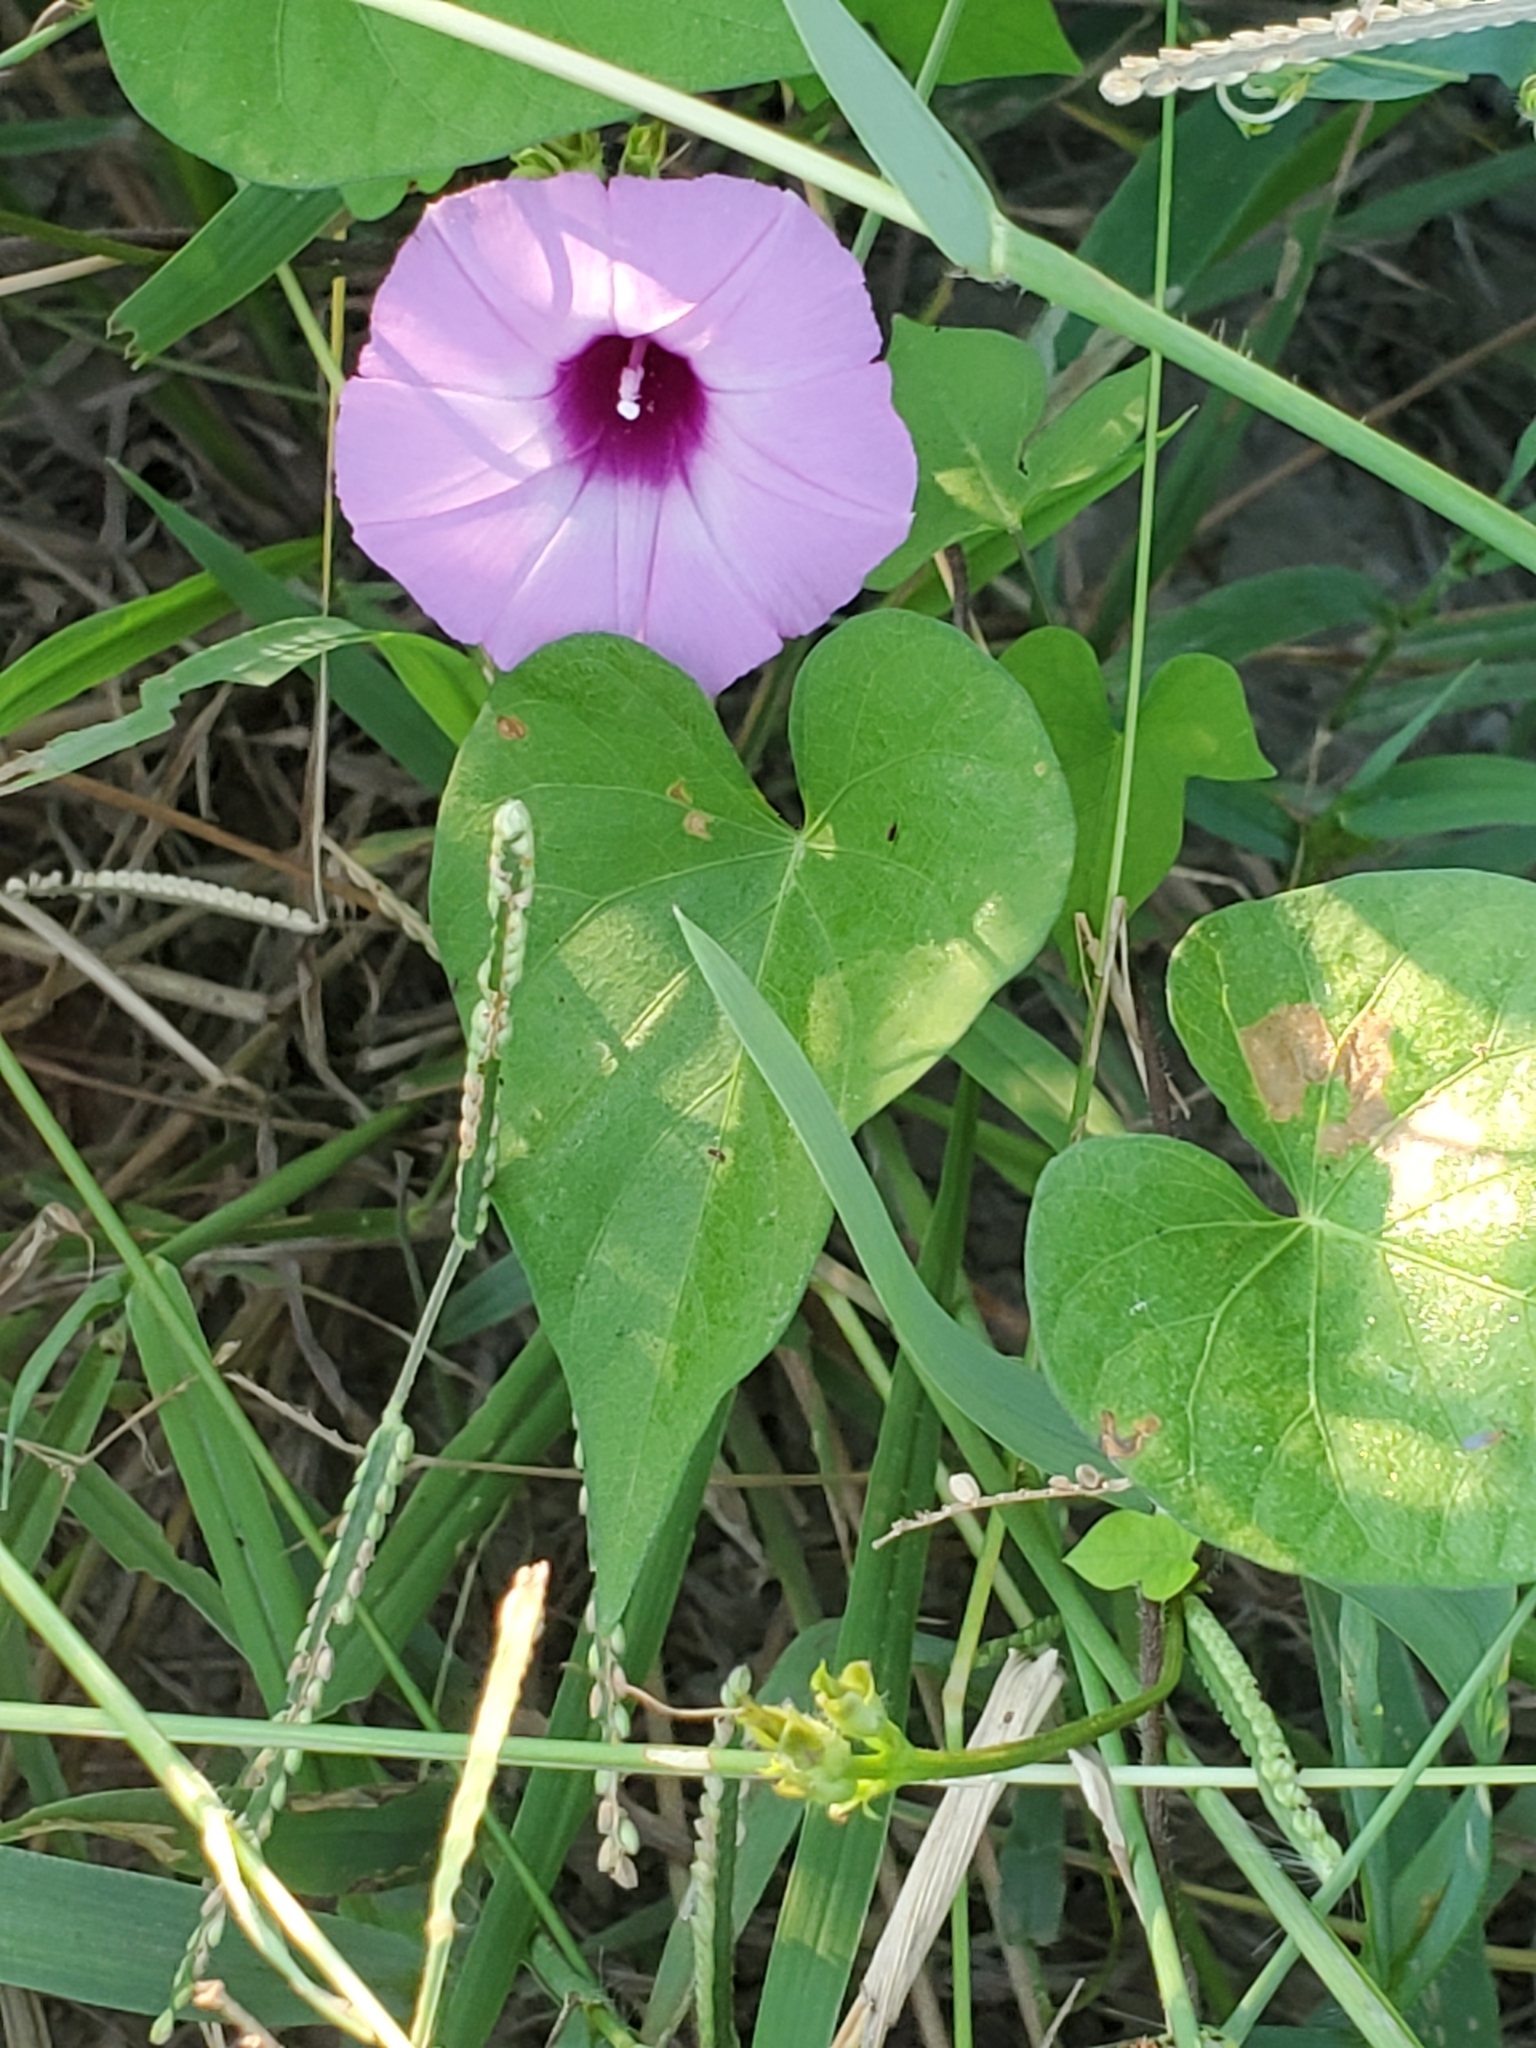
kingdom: Plantae
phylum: Tracheophyta
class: Magnoliopsida
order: Solanales
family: Convolvulaceae
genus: Ipomoea
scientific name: Ipomoea cordatotriloba
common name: Cotton morning glory
